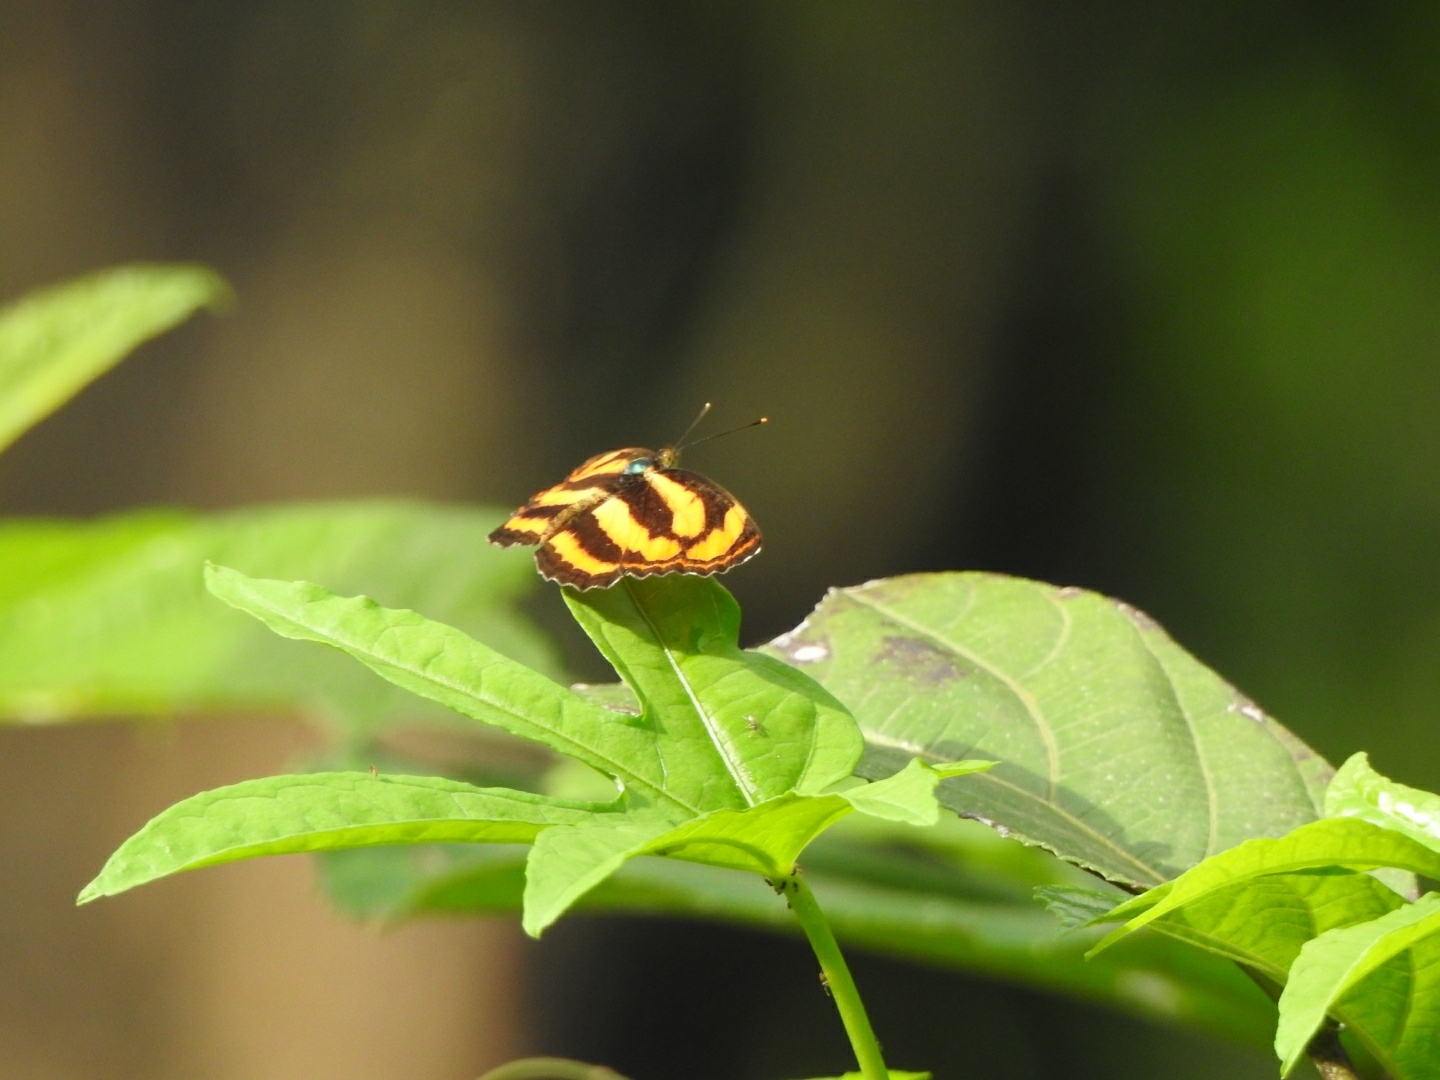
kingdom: Animalia
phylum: Arthropoda
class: Insecta
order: Lepidoptera
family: Nymphalidae
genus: Pantoporia
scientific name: Pantoporia hordonia
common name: Common lascar
